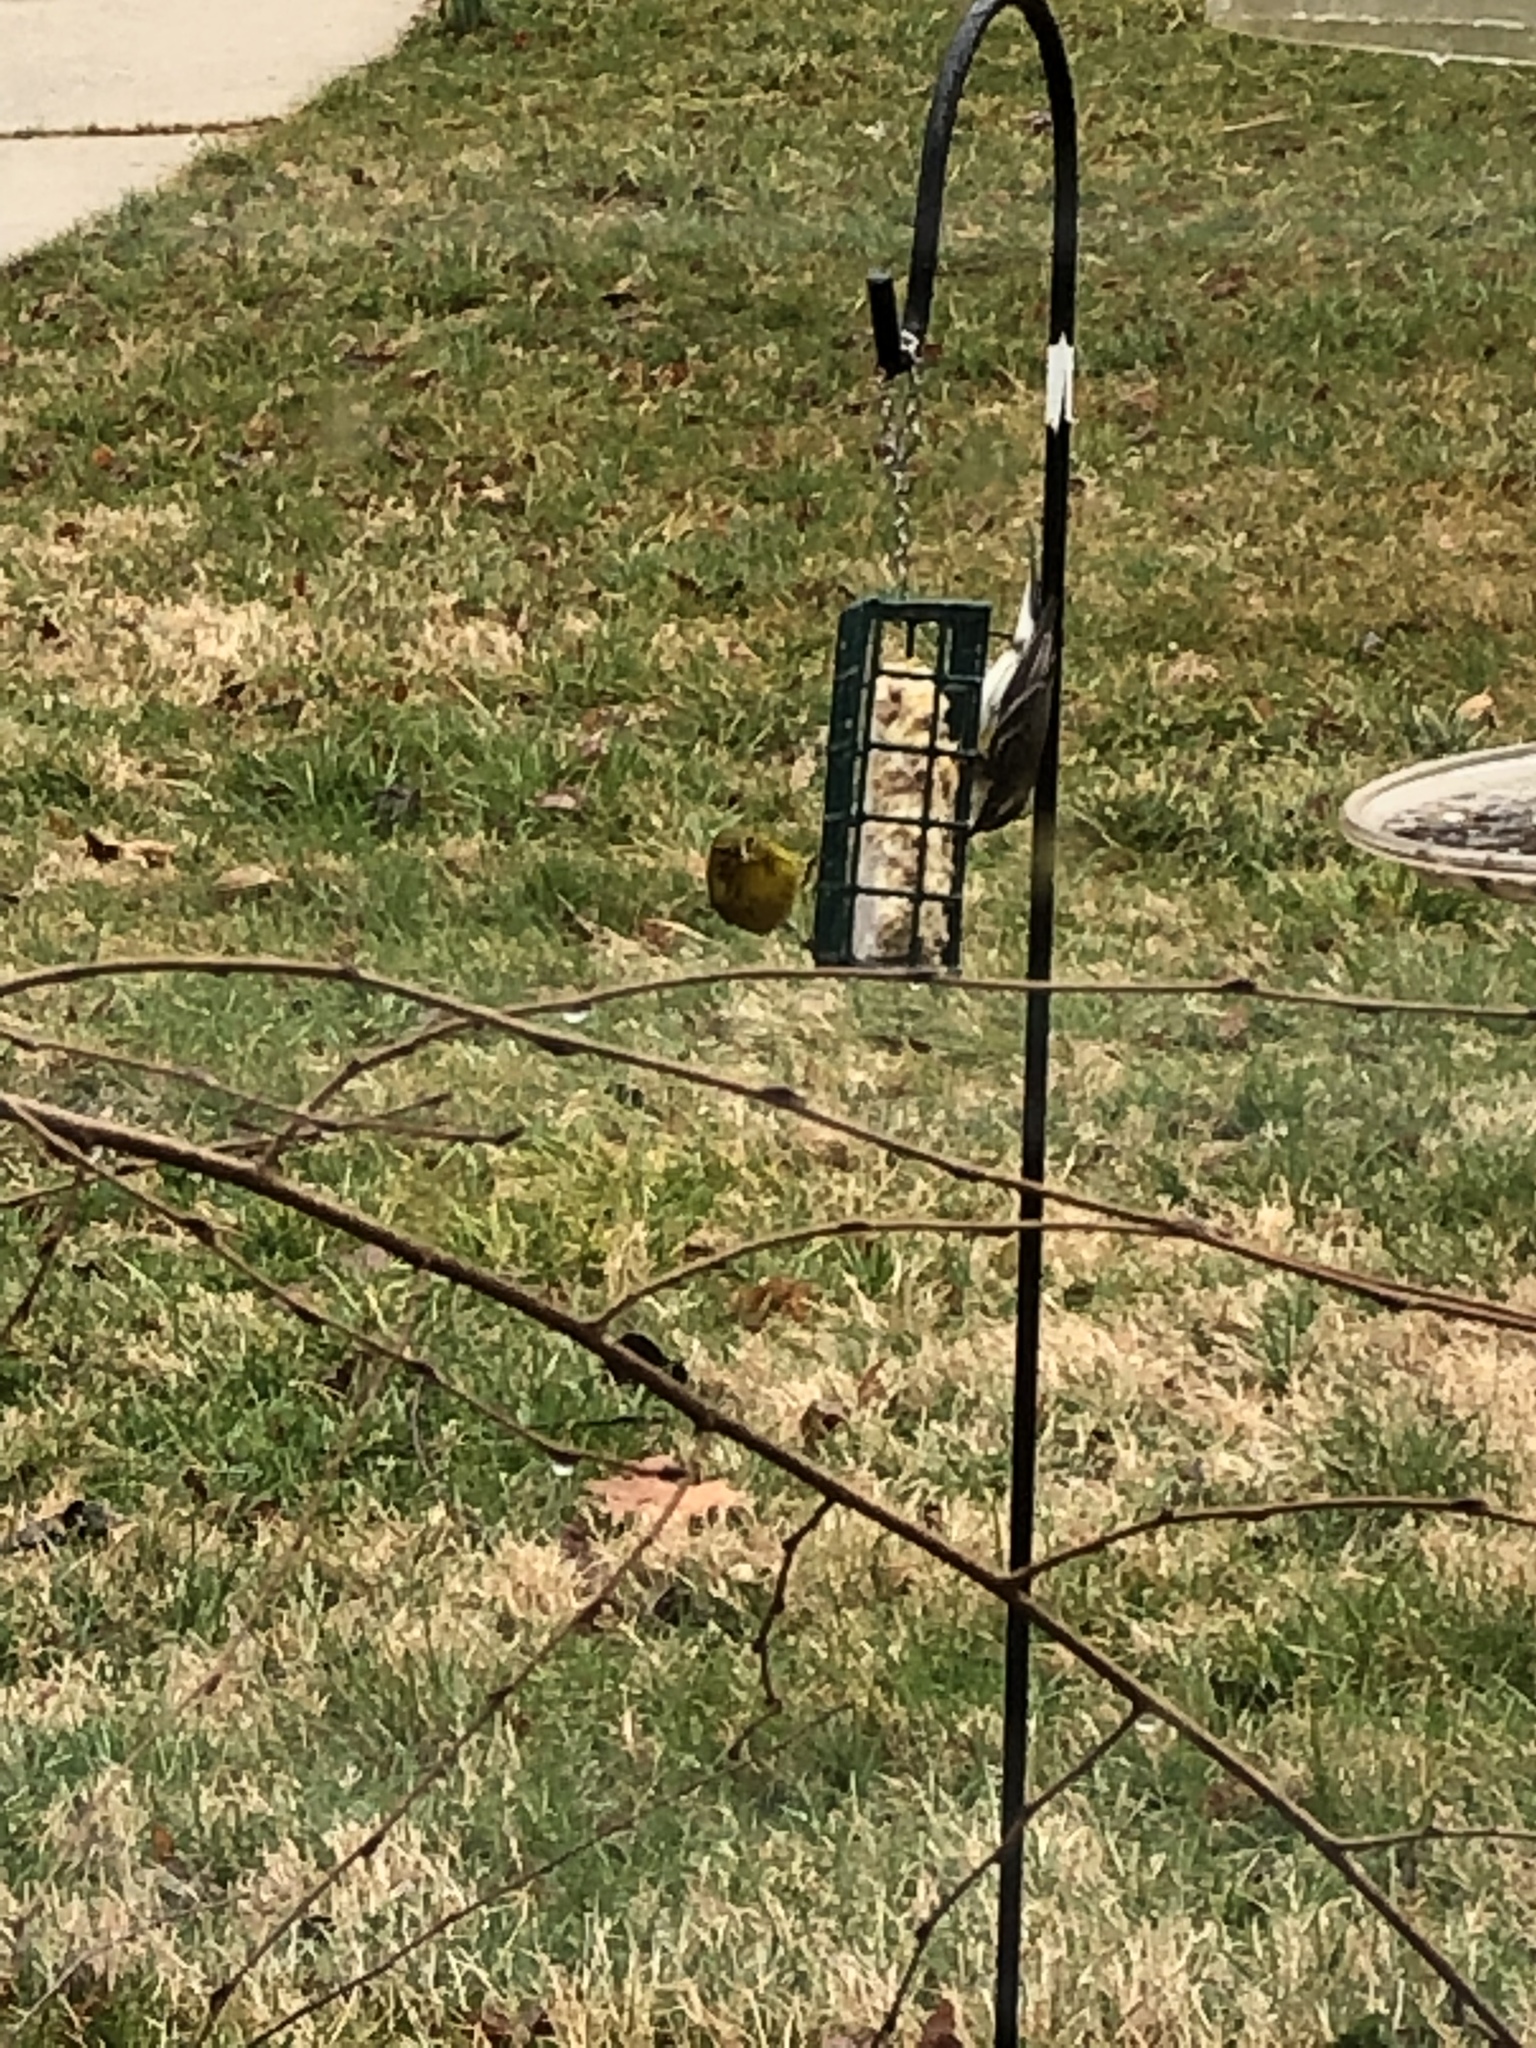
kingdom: Animalia
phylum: Chordata
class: Aves
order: Passeriformes
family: Parulidae
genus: Setophaga
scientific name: Setophaga pinus
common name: Pine warbler
